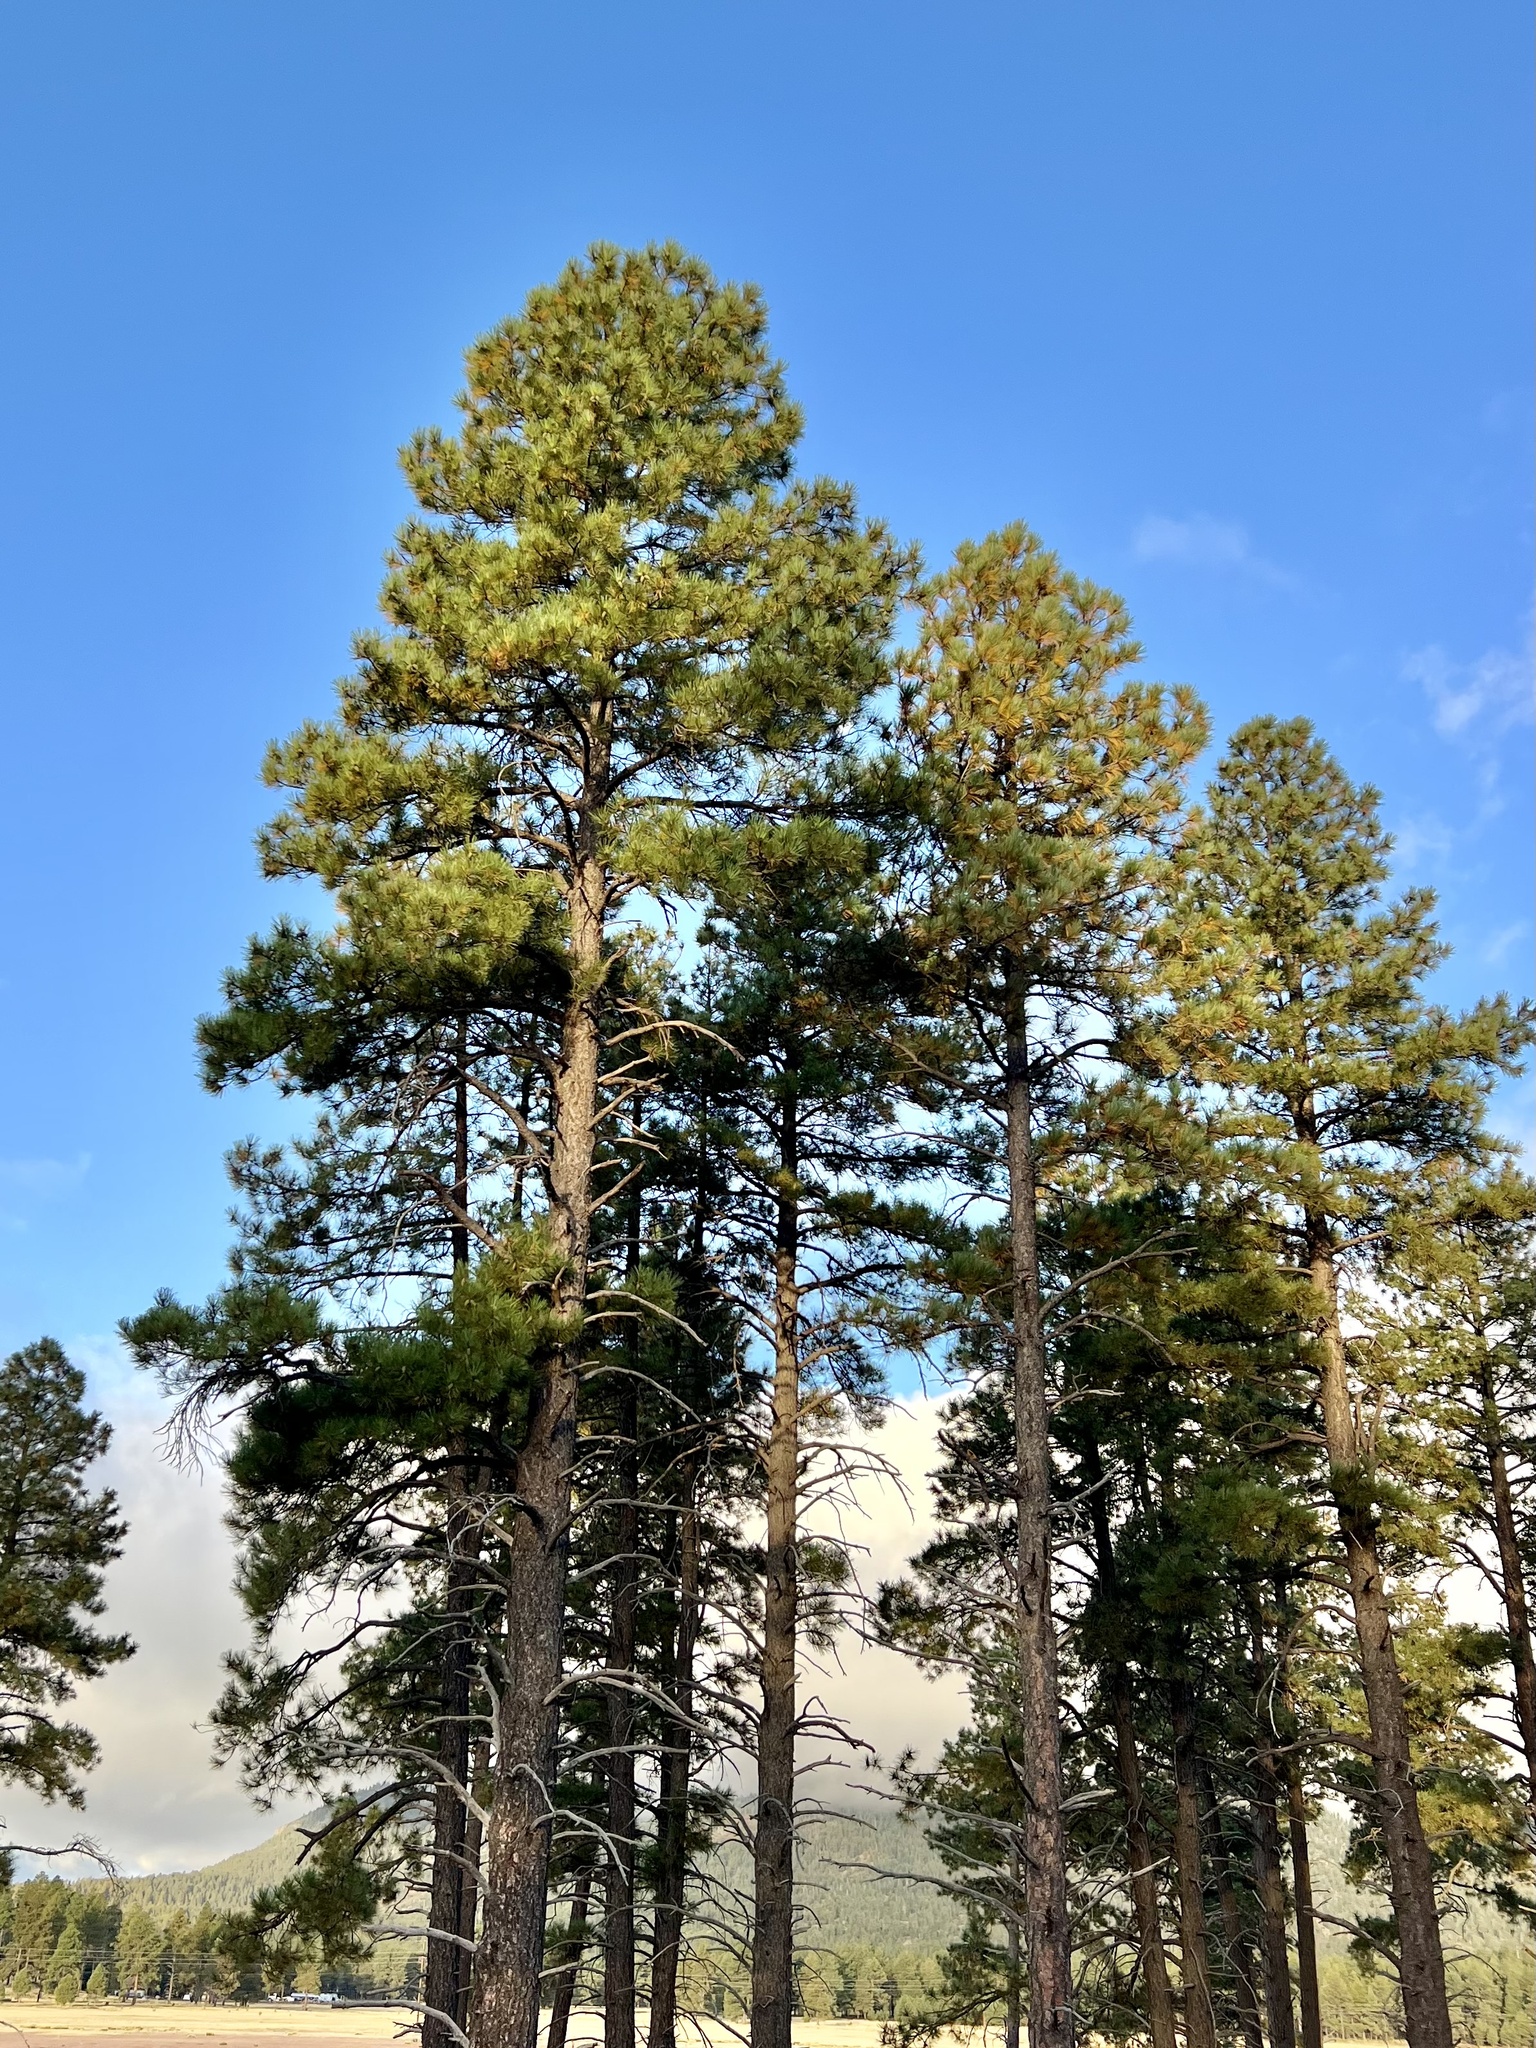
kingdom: Plantae
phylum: Tracheophyta
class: Pinopsida
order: Pinales
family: Pinaceae
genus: Pinus
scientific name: Pinus ponderosa
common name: Western yellow-pine
